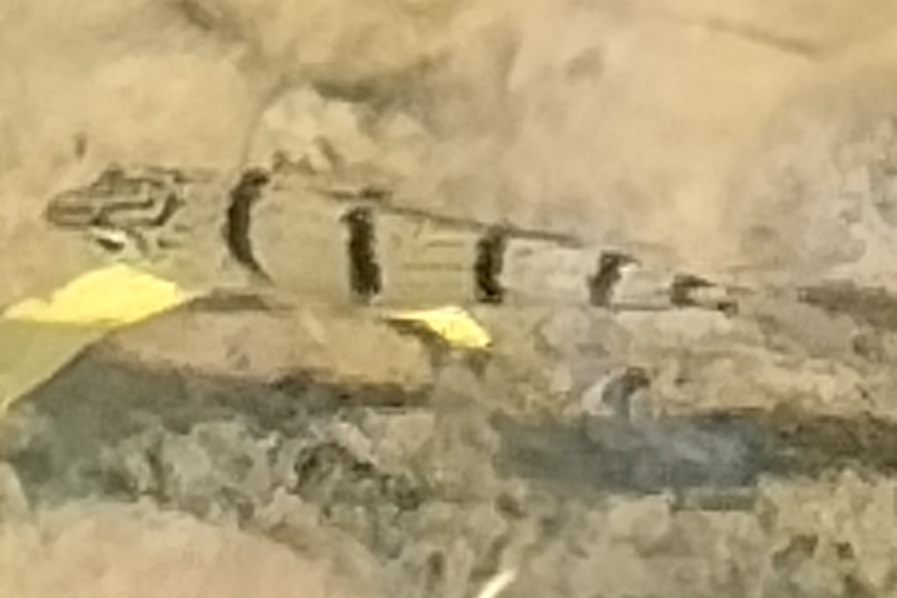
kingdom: Animalia
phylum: Chordata
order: Perciformes
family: Terapontidae
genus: Amniataba
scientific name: Amniataba percoides
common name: Banded grunter
